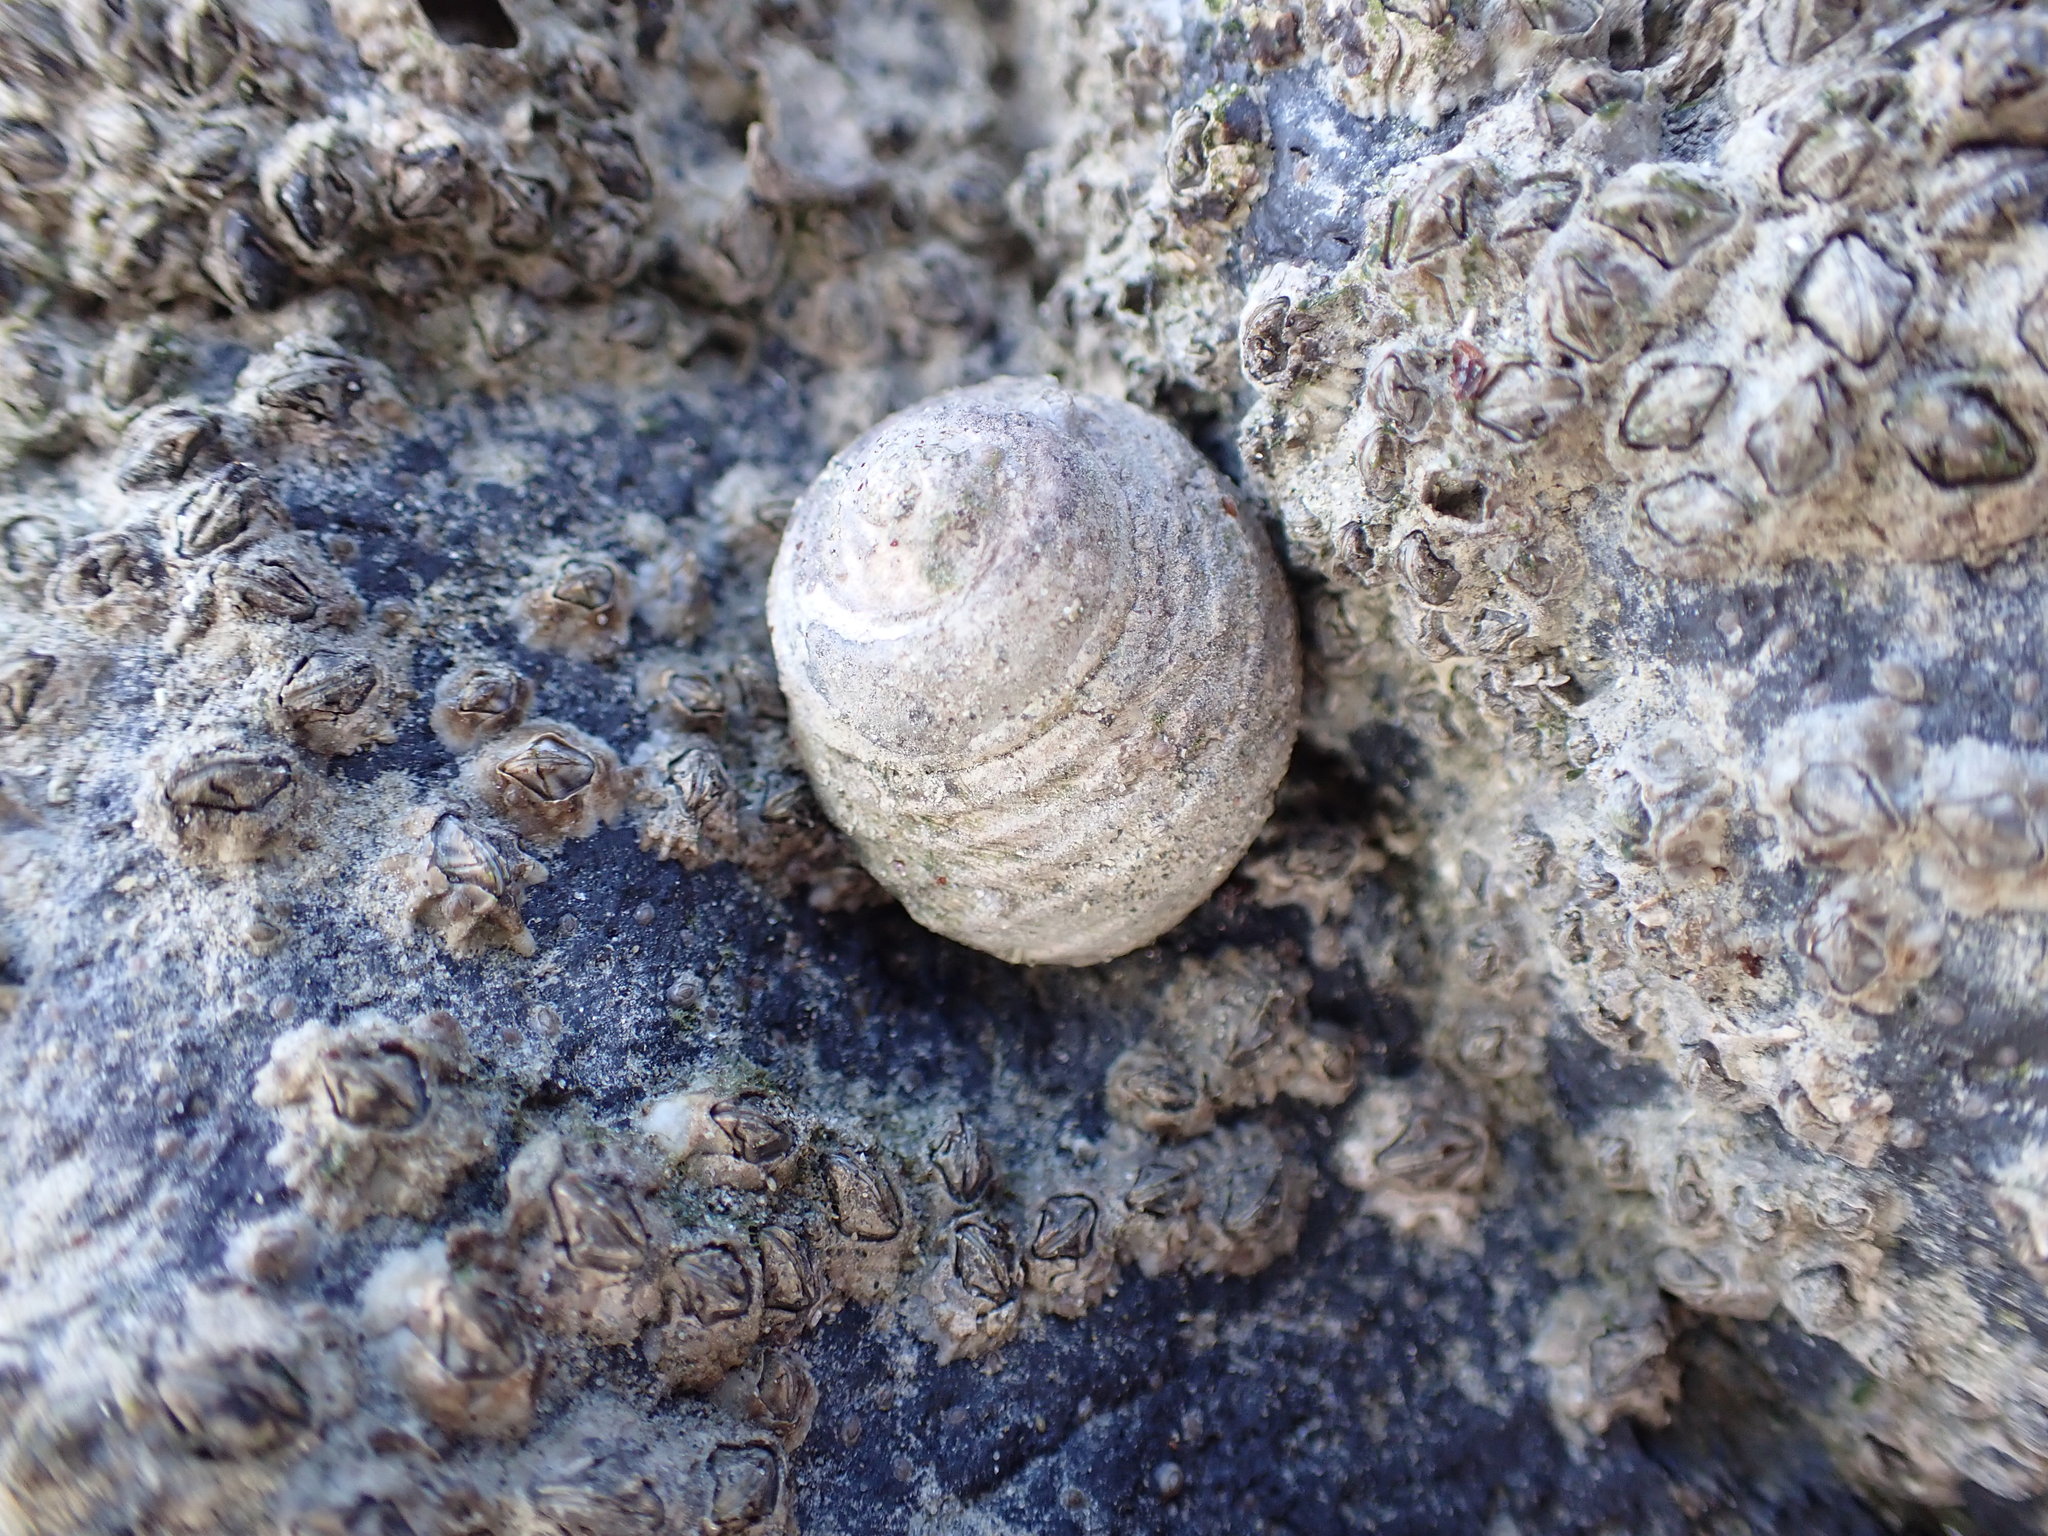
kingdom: Animalia
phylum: Mollusca
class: Gastropoda
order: Trochida
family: Trochidae
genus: Diloma
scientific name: Diloma subrostratum
